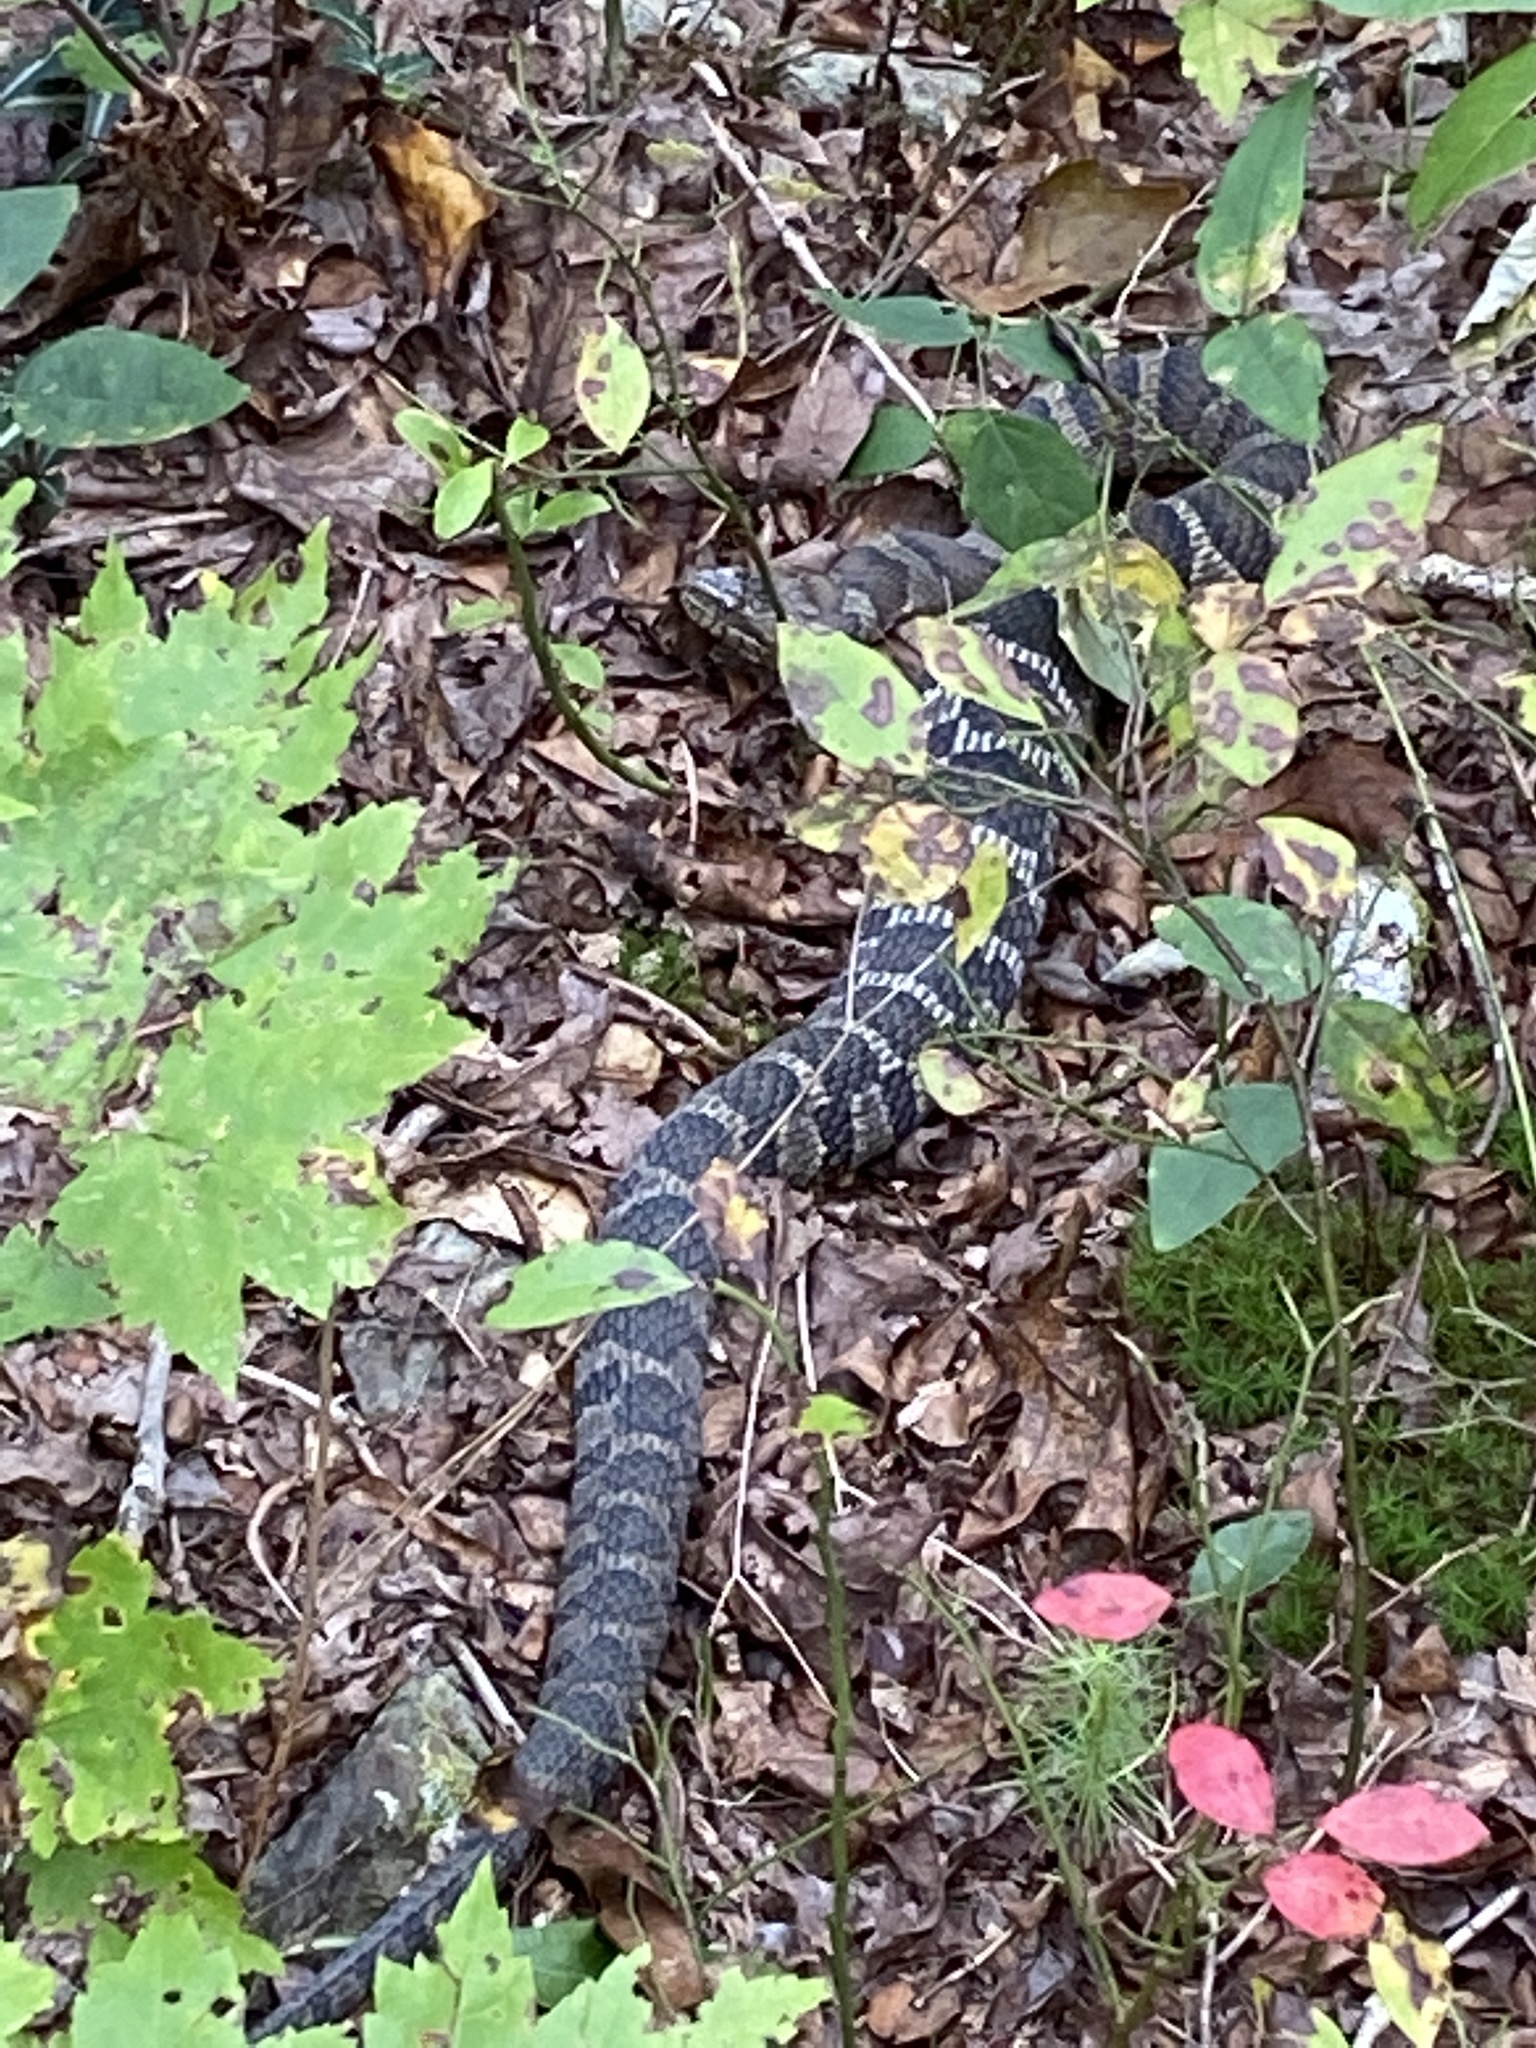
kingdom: Animalia
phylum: Chordata
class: Squamata
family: Colubridae
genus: Nerodia
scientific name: Nerodia sipedon
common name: Northern water snake
